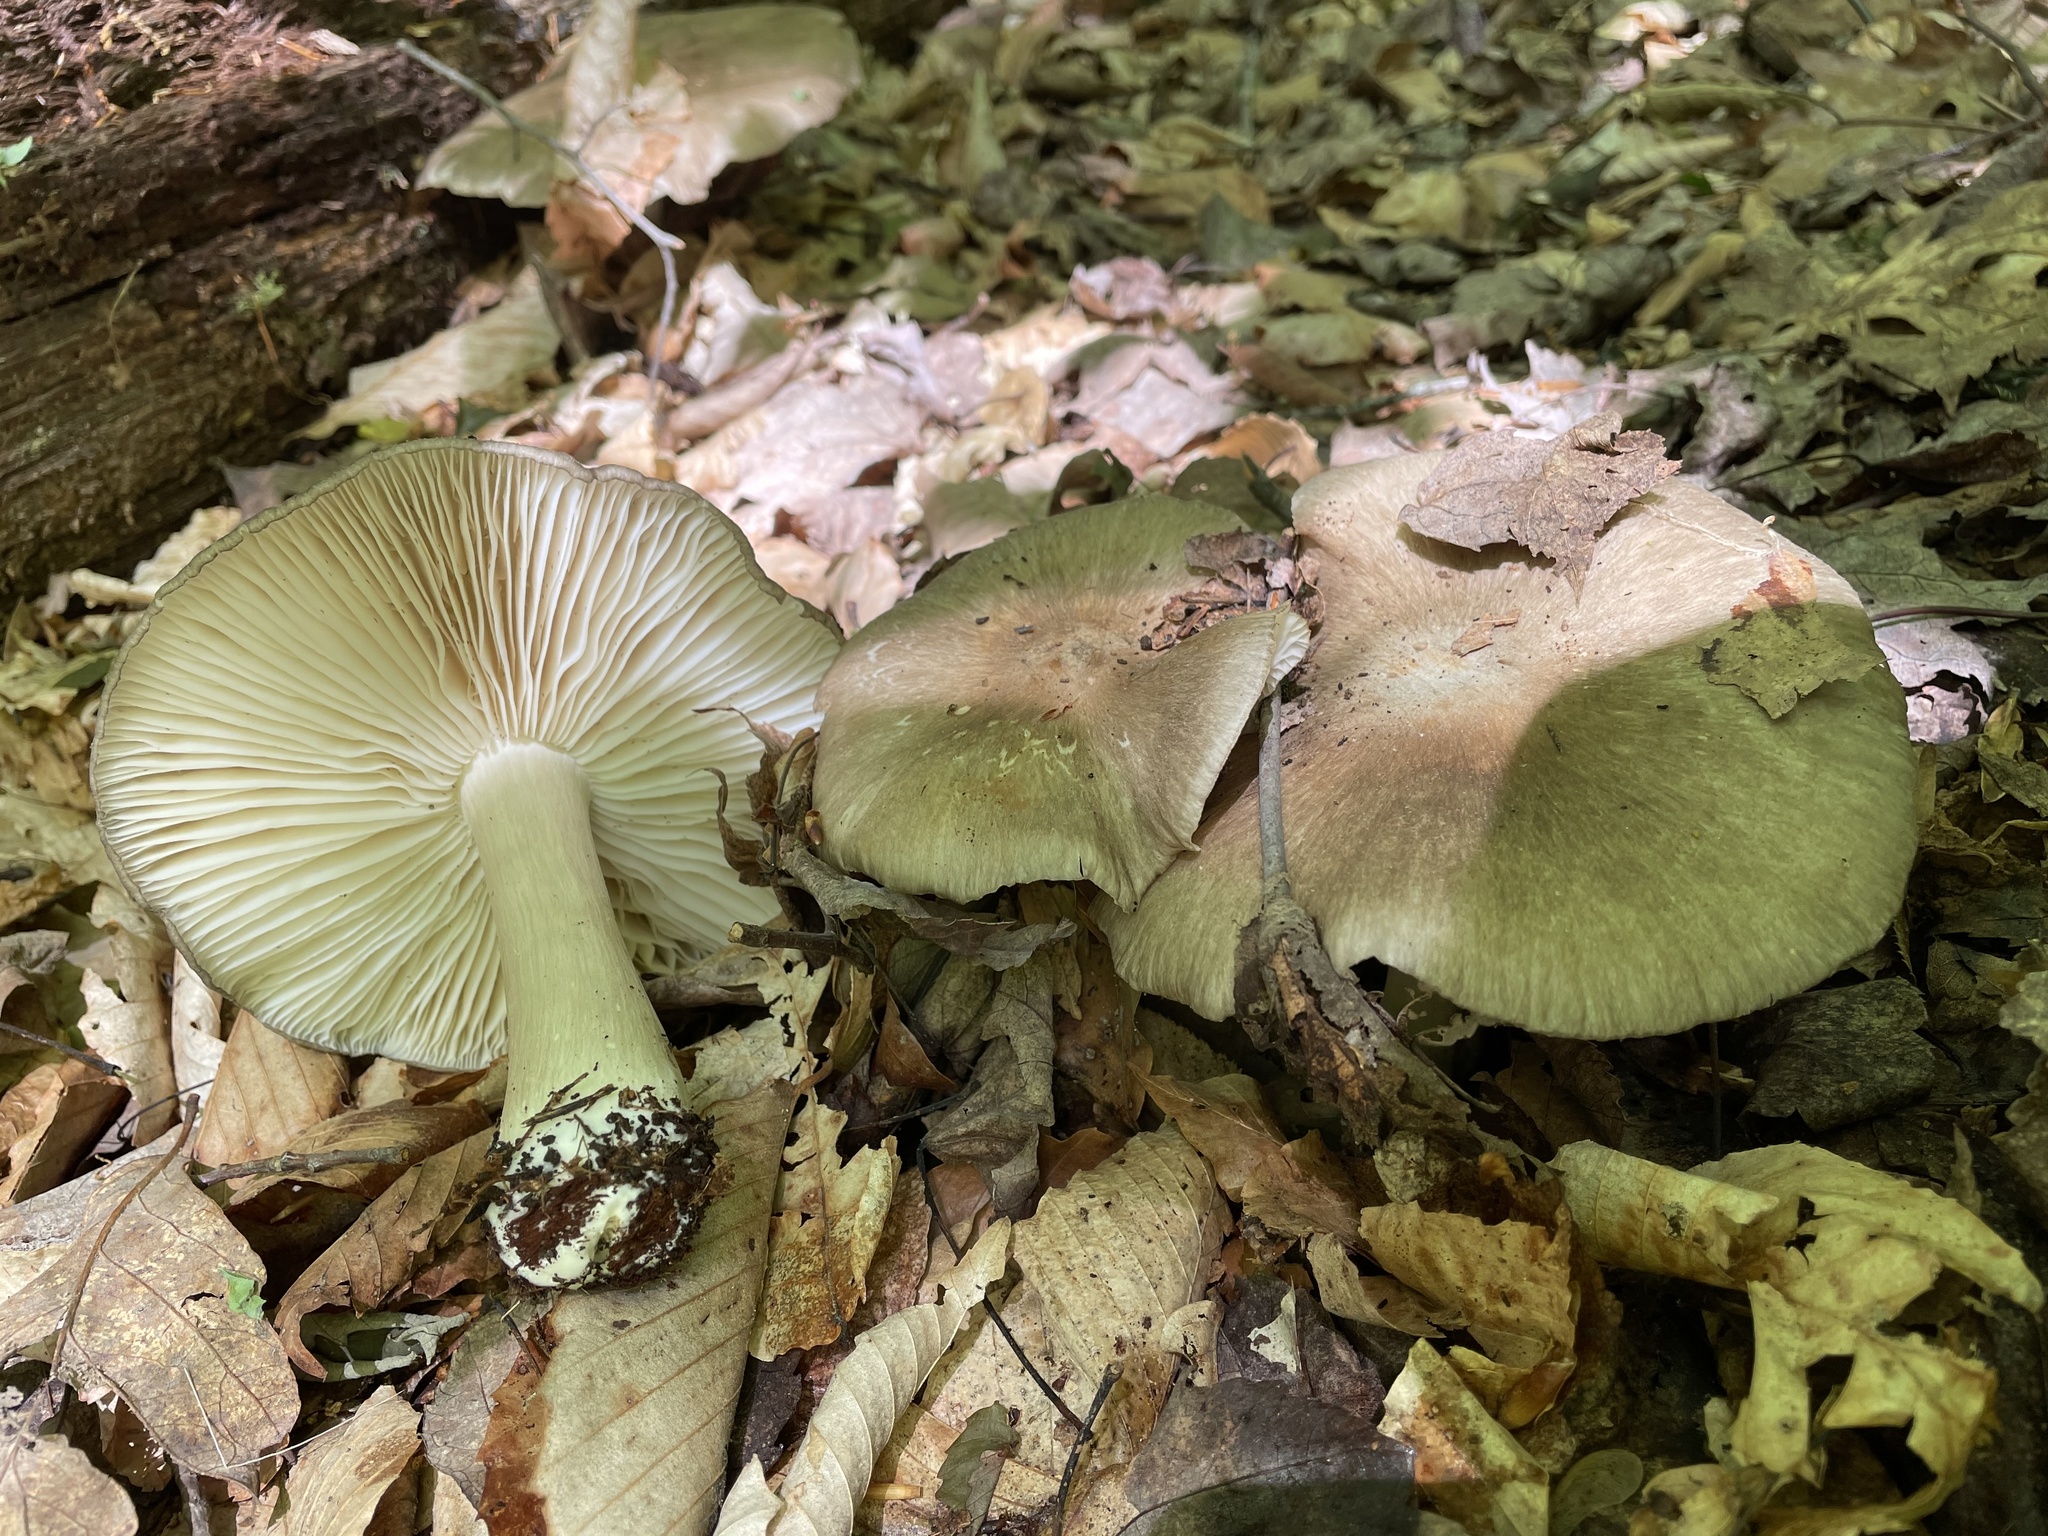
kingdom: Fungi
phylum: Basidiomycota
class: Agaricomycetes
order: Agaricales
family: Tricholomataceae
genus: Megacollybia
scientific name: Megacollybia rodmanii
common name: Eastern american platterful mushroom
